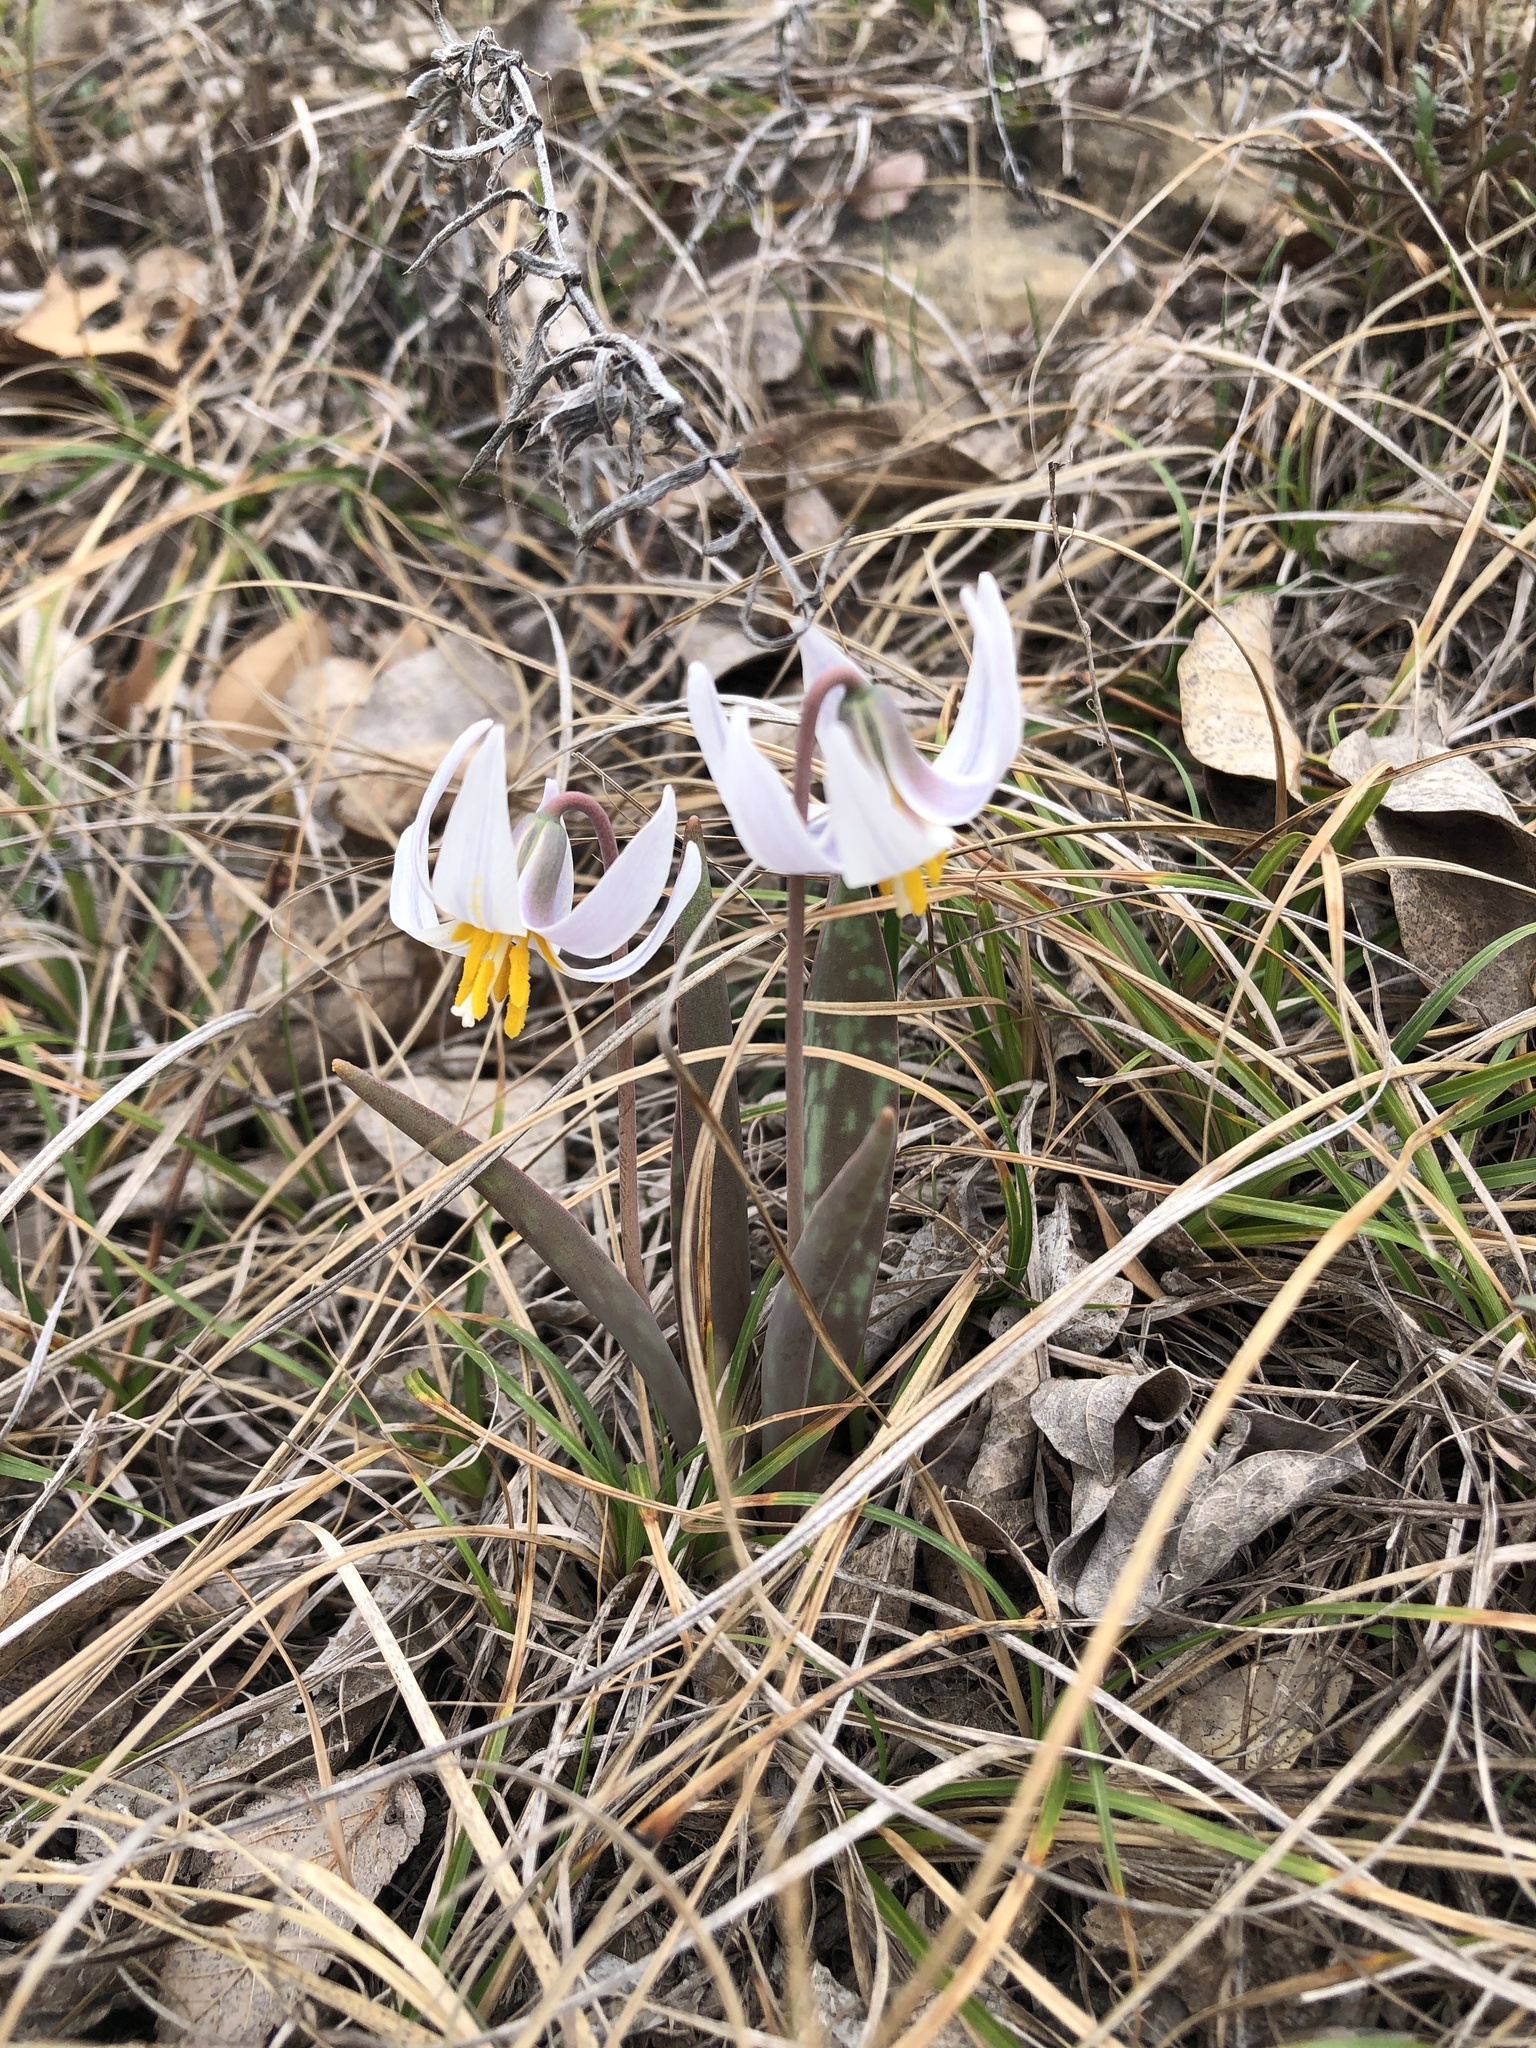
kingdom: Plantae
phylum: Tracheophyta
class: Liliopsida
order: Liliales
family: Liliaceae
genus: Erythronium
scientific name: Erythronium albidum
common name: White trout-lily
